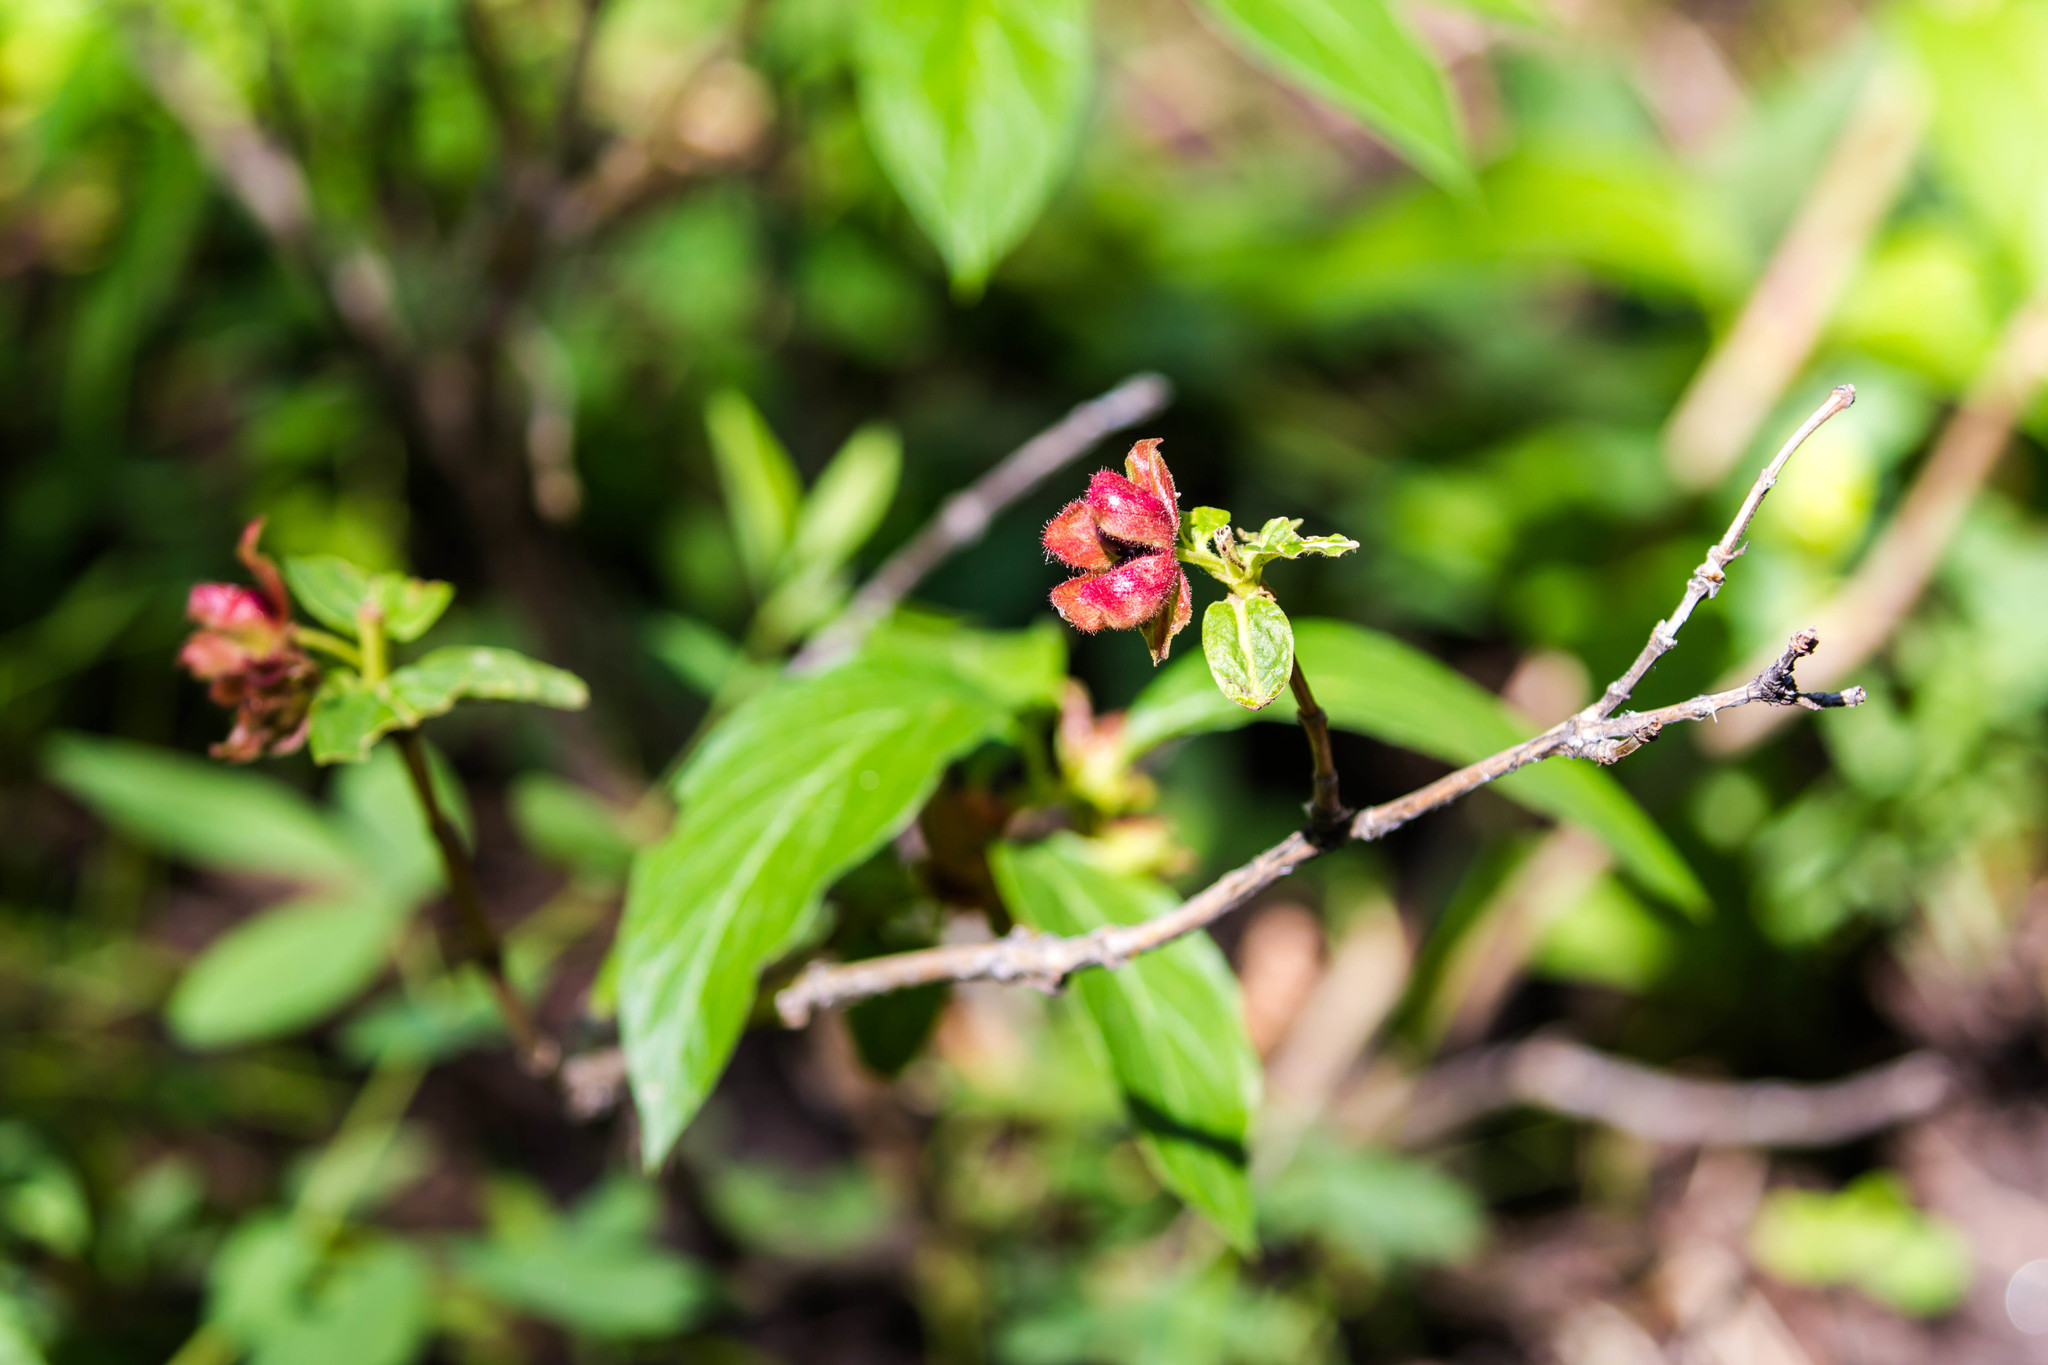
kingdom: Plantae
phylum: Tracheophyta
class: Magnoliopsida
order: Dipsacales
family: Caprifoliaceae
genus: Lonicera
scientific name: Lonicera involucrata
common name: Californian honeysuckle
